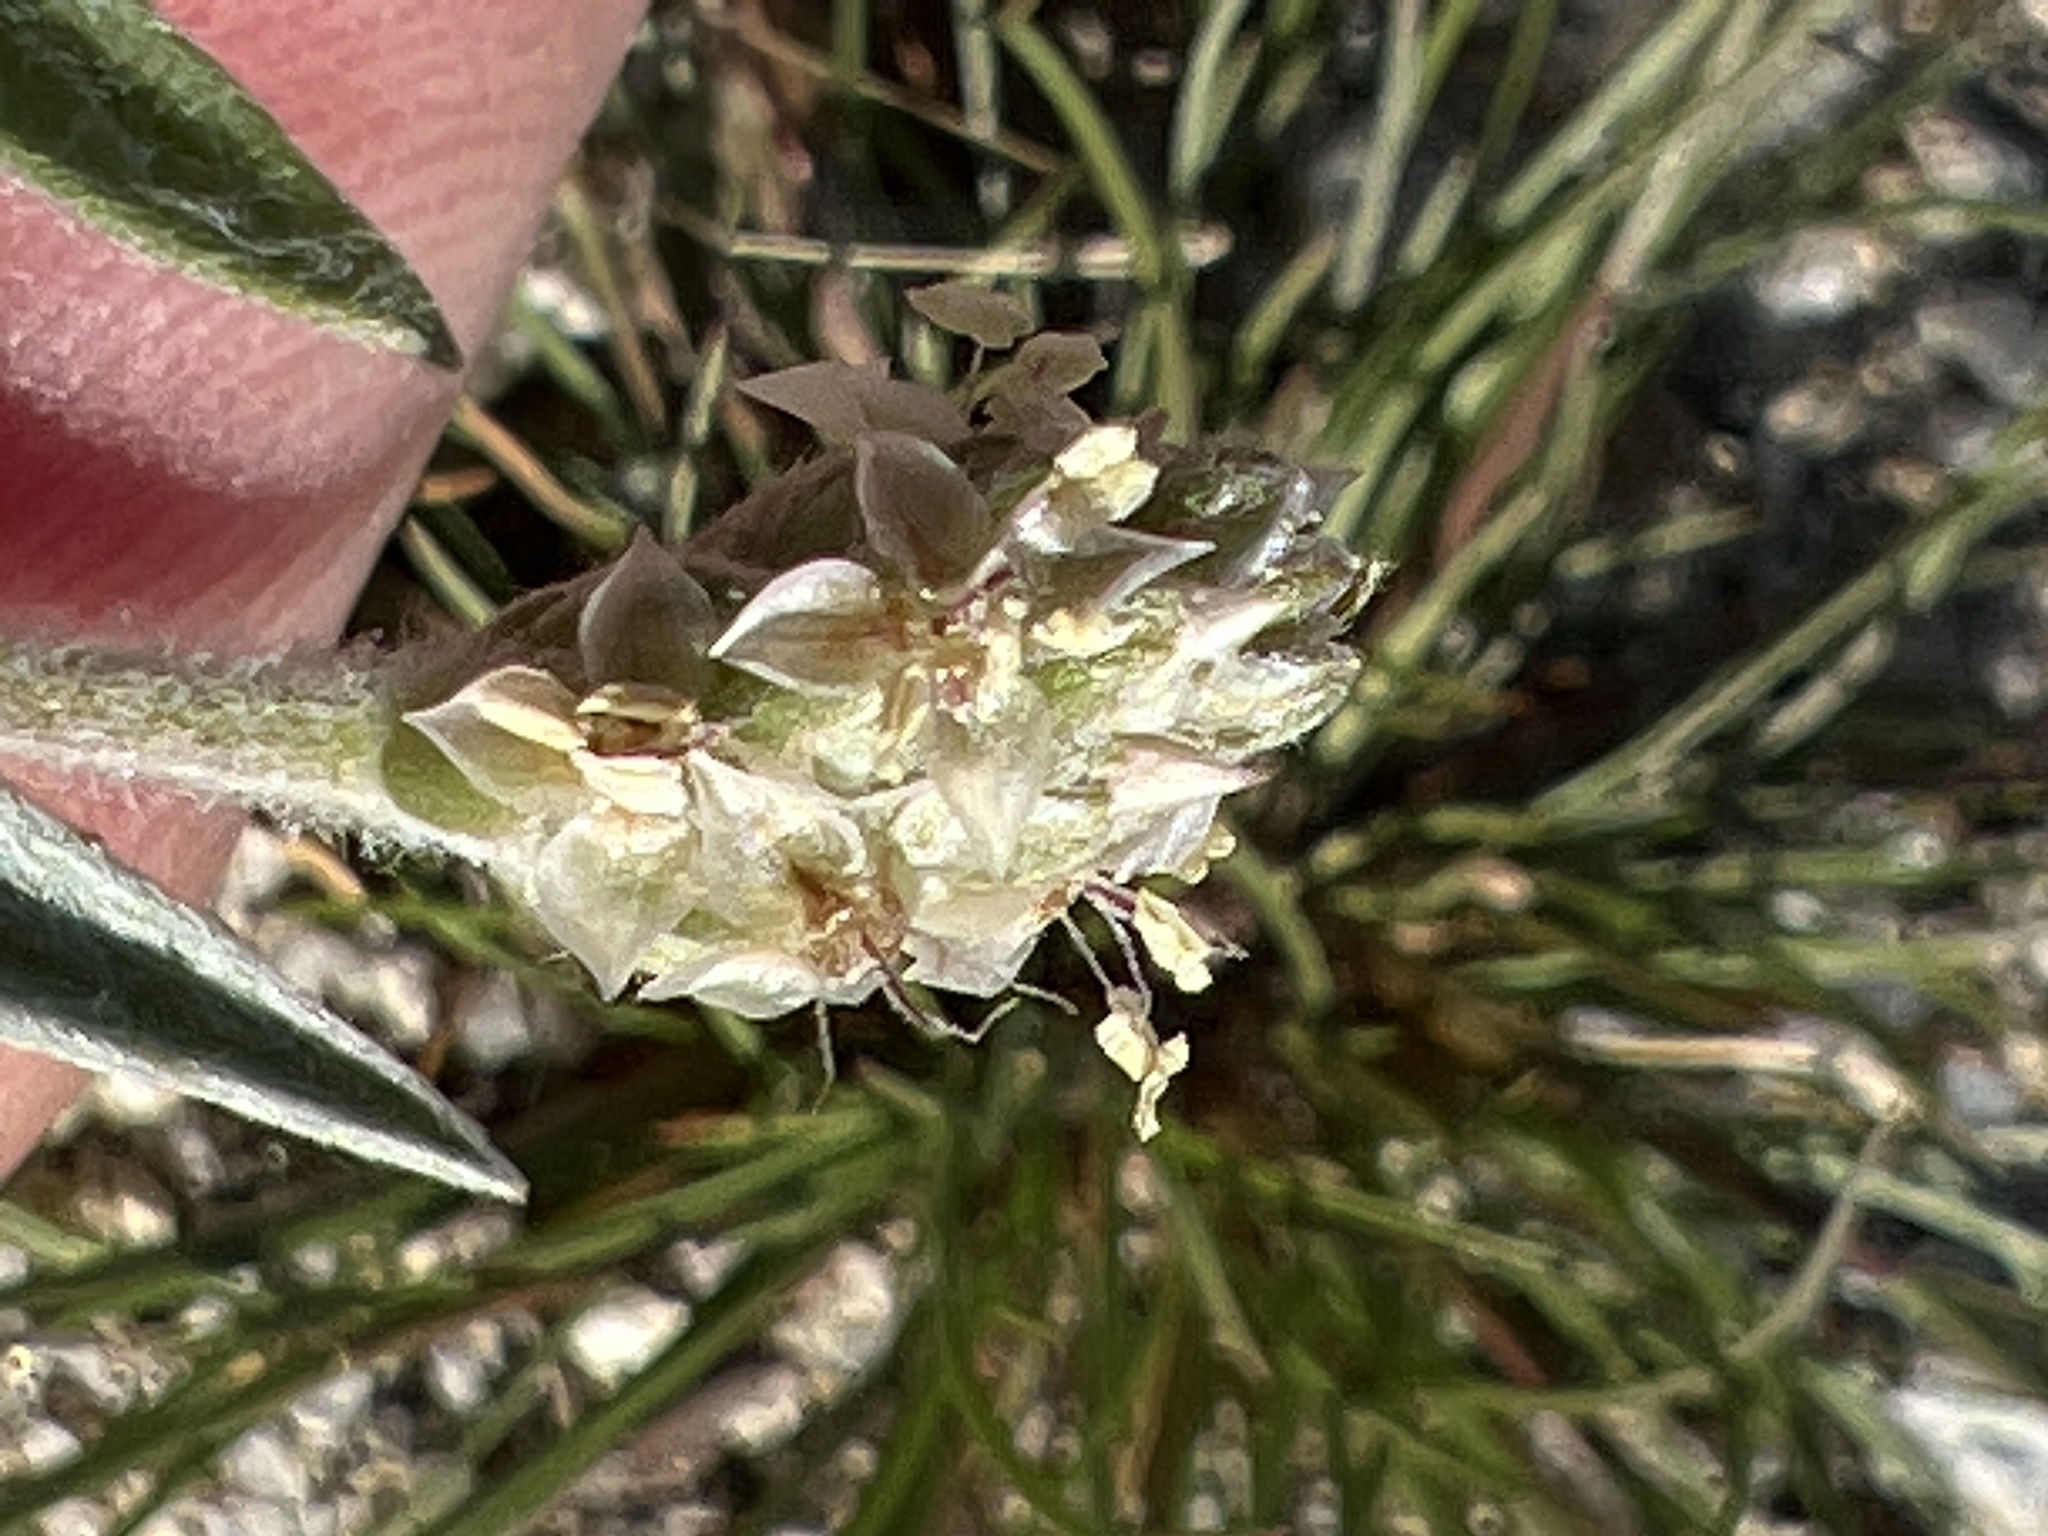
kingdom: Plantae
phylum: Tracheophyta
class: Magnoliopsida
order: Lamiales
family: Plantaginaceae
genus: Plantago
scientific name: Plantago ovata
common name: Blond plantain
